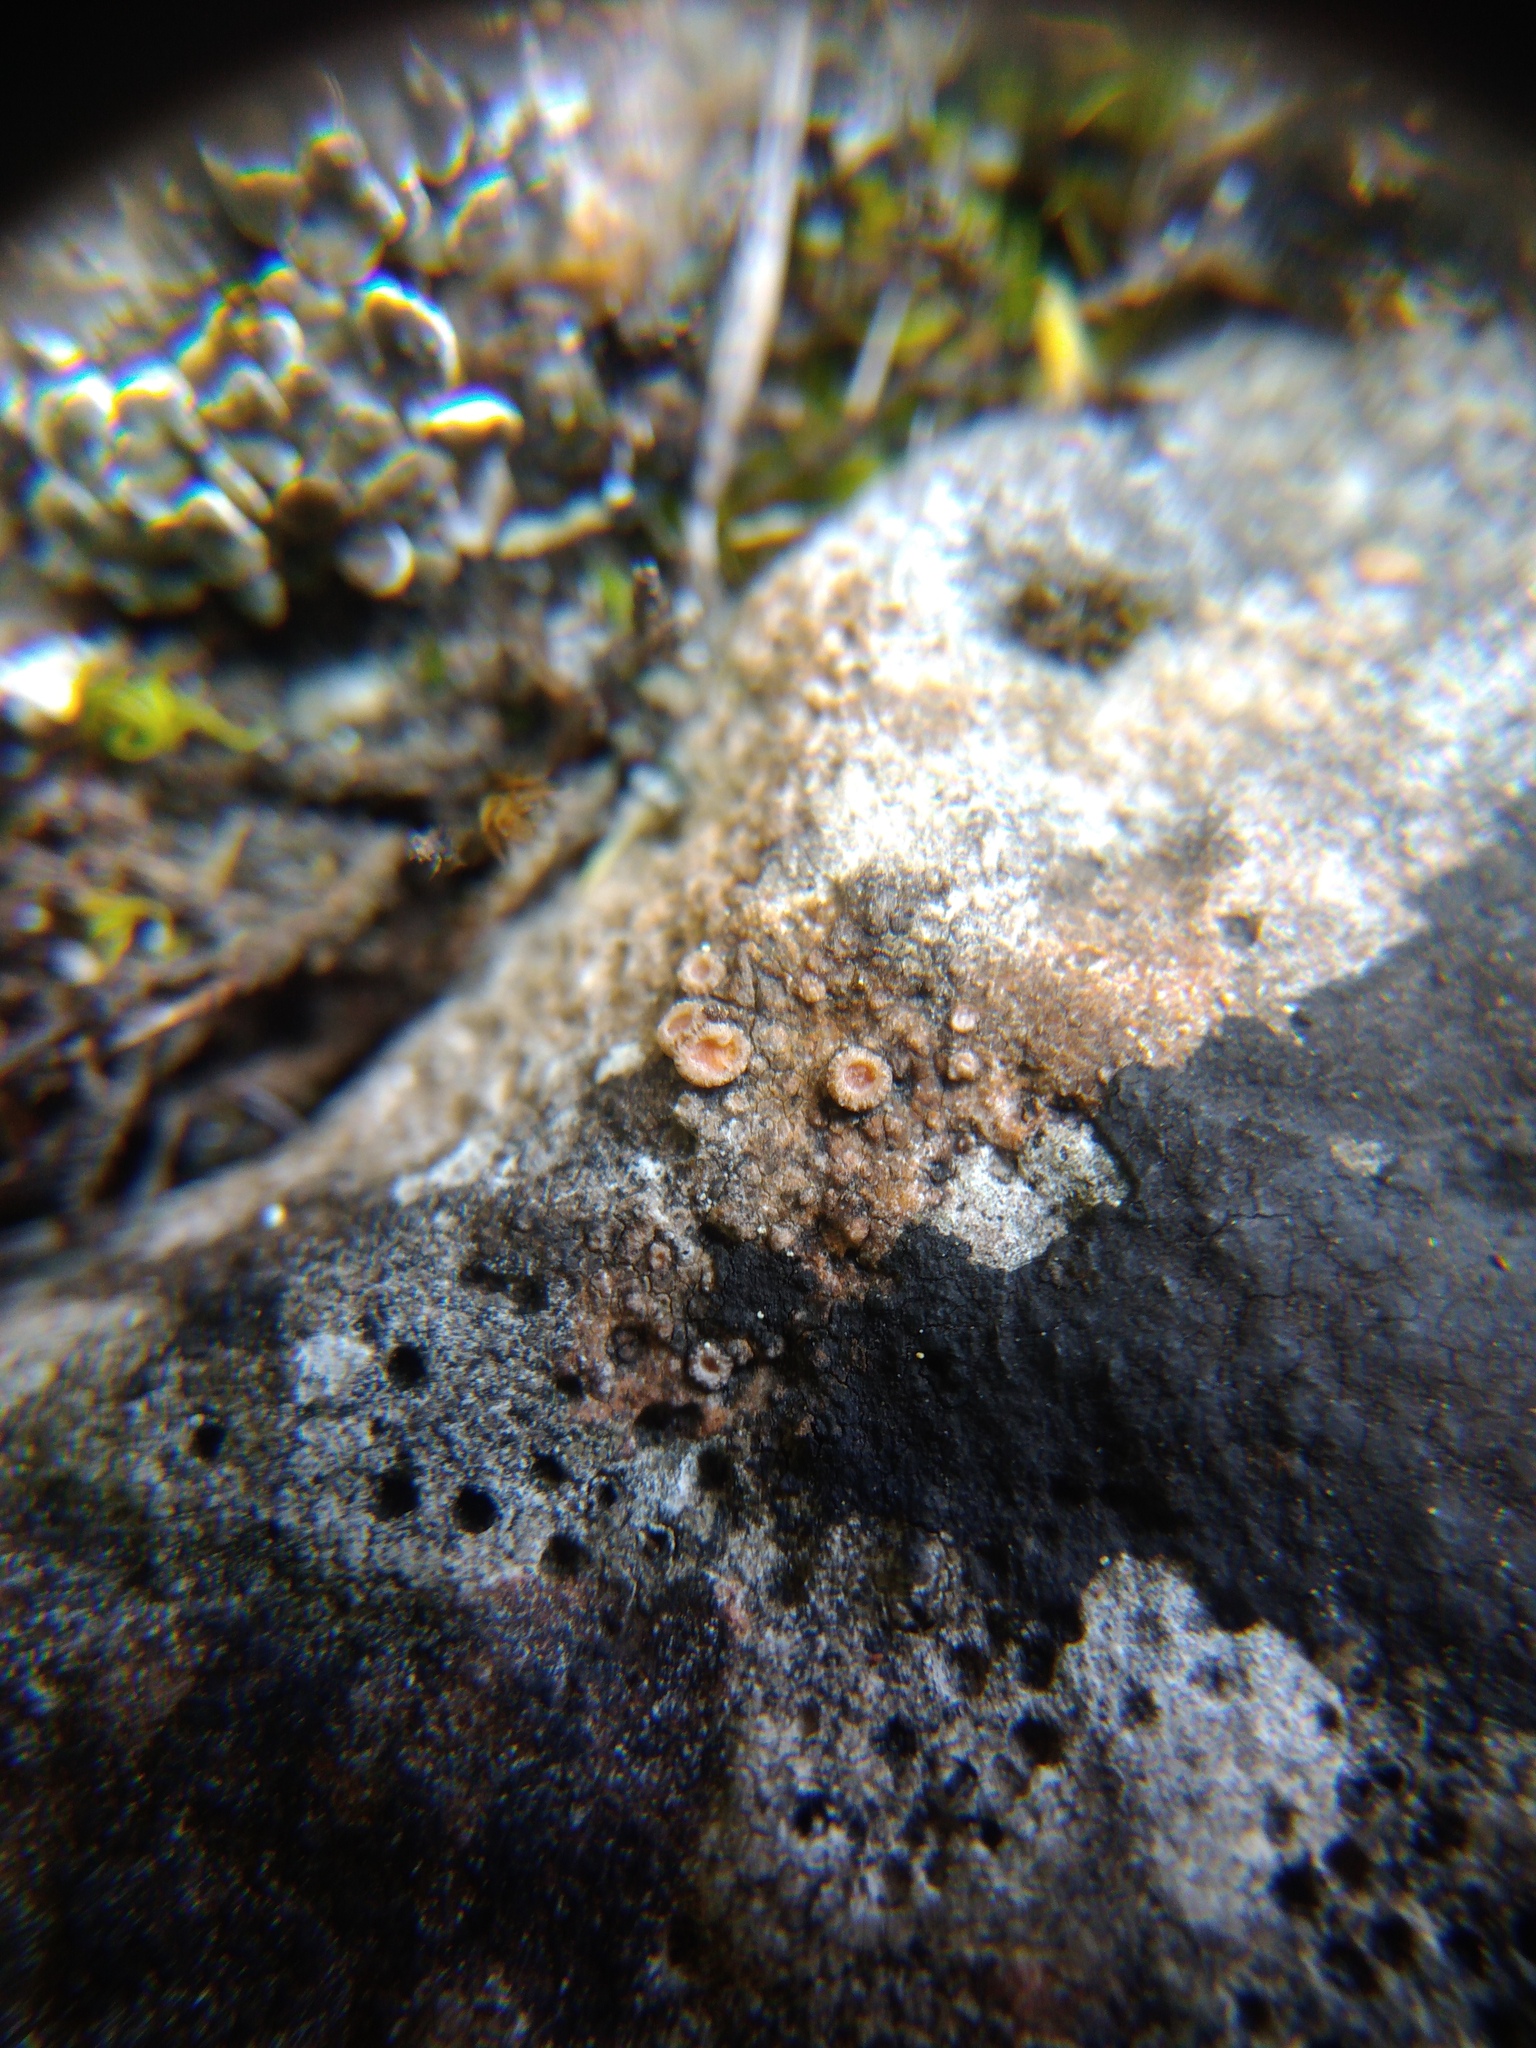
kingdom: Fungi
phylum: Ascomycota
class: Lecanoromycetes
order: Gyalectales
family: Gyalectaceae
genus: Gyalecta
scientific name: Gyalecta jenensis
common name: Rock dimple lichen
